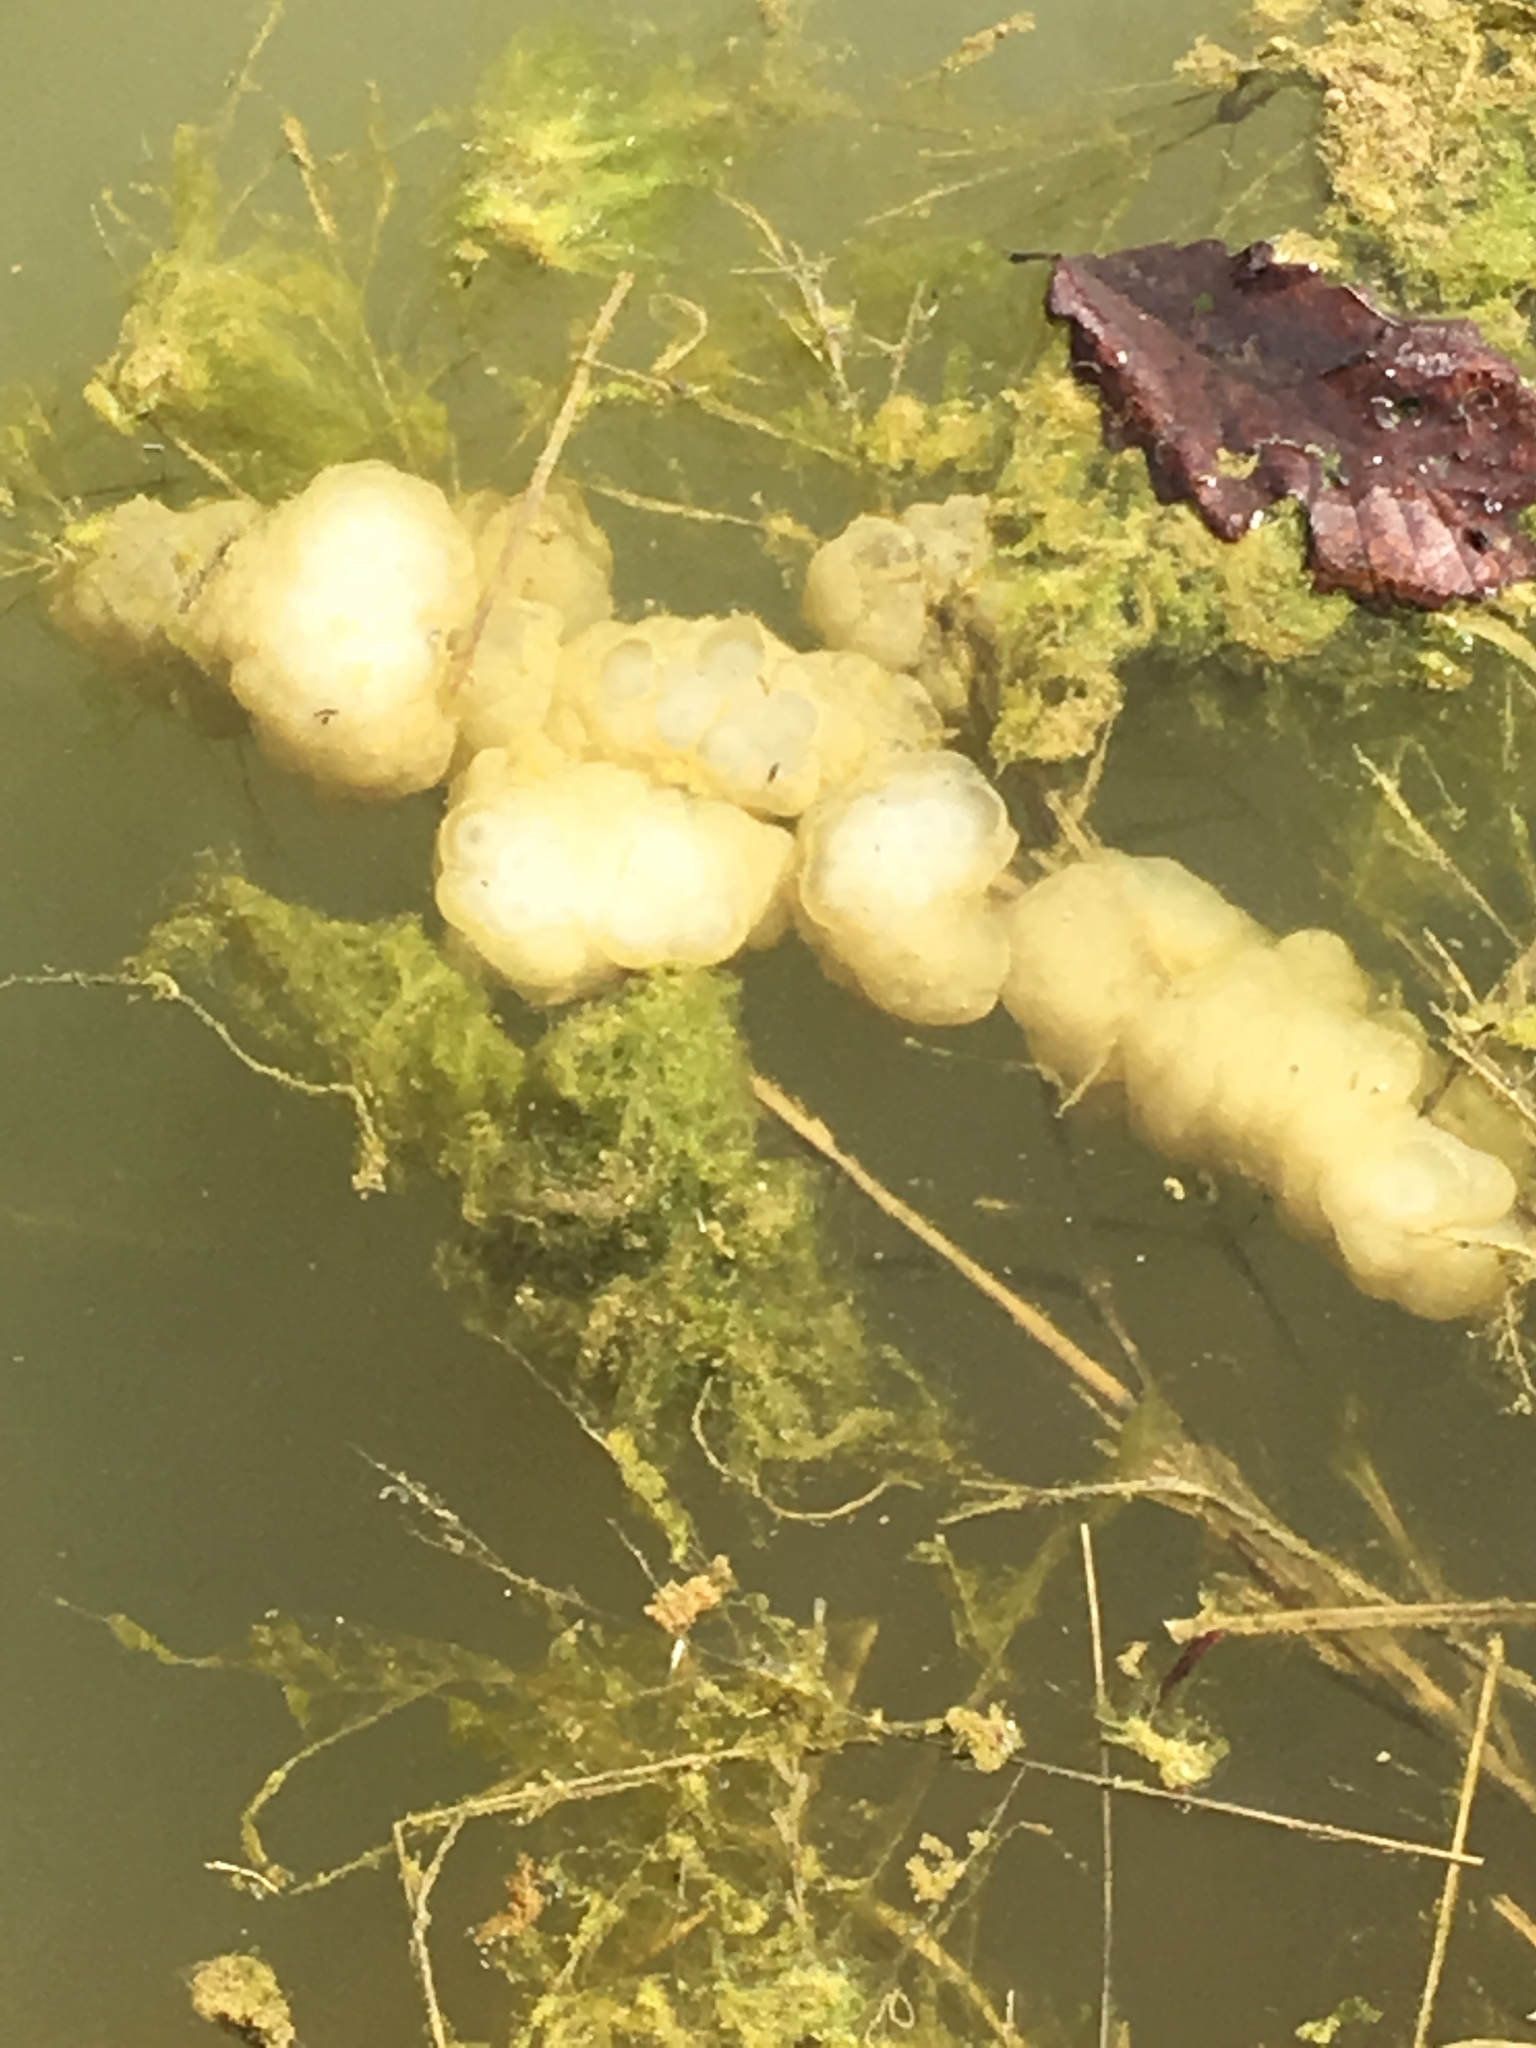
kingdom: Animalia
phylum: Chordata
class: Amphibia
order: Caudata
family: Ambystomatidae
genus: Ambystoma
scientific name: Ambystoma maculatum
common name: Spotted salamander
